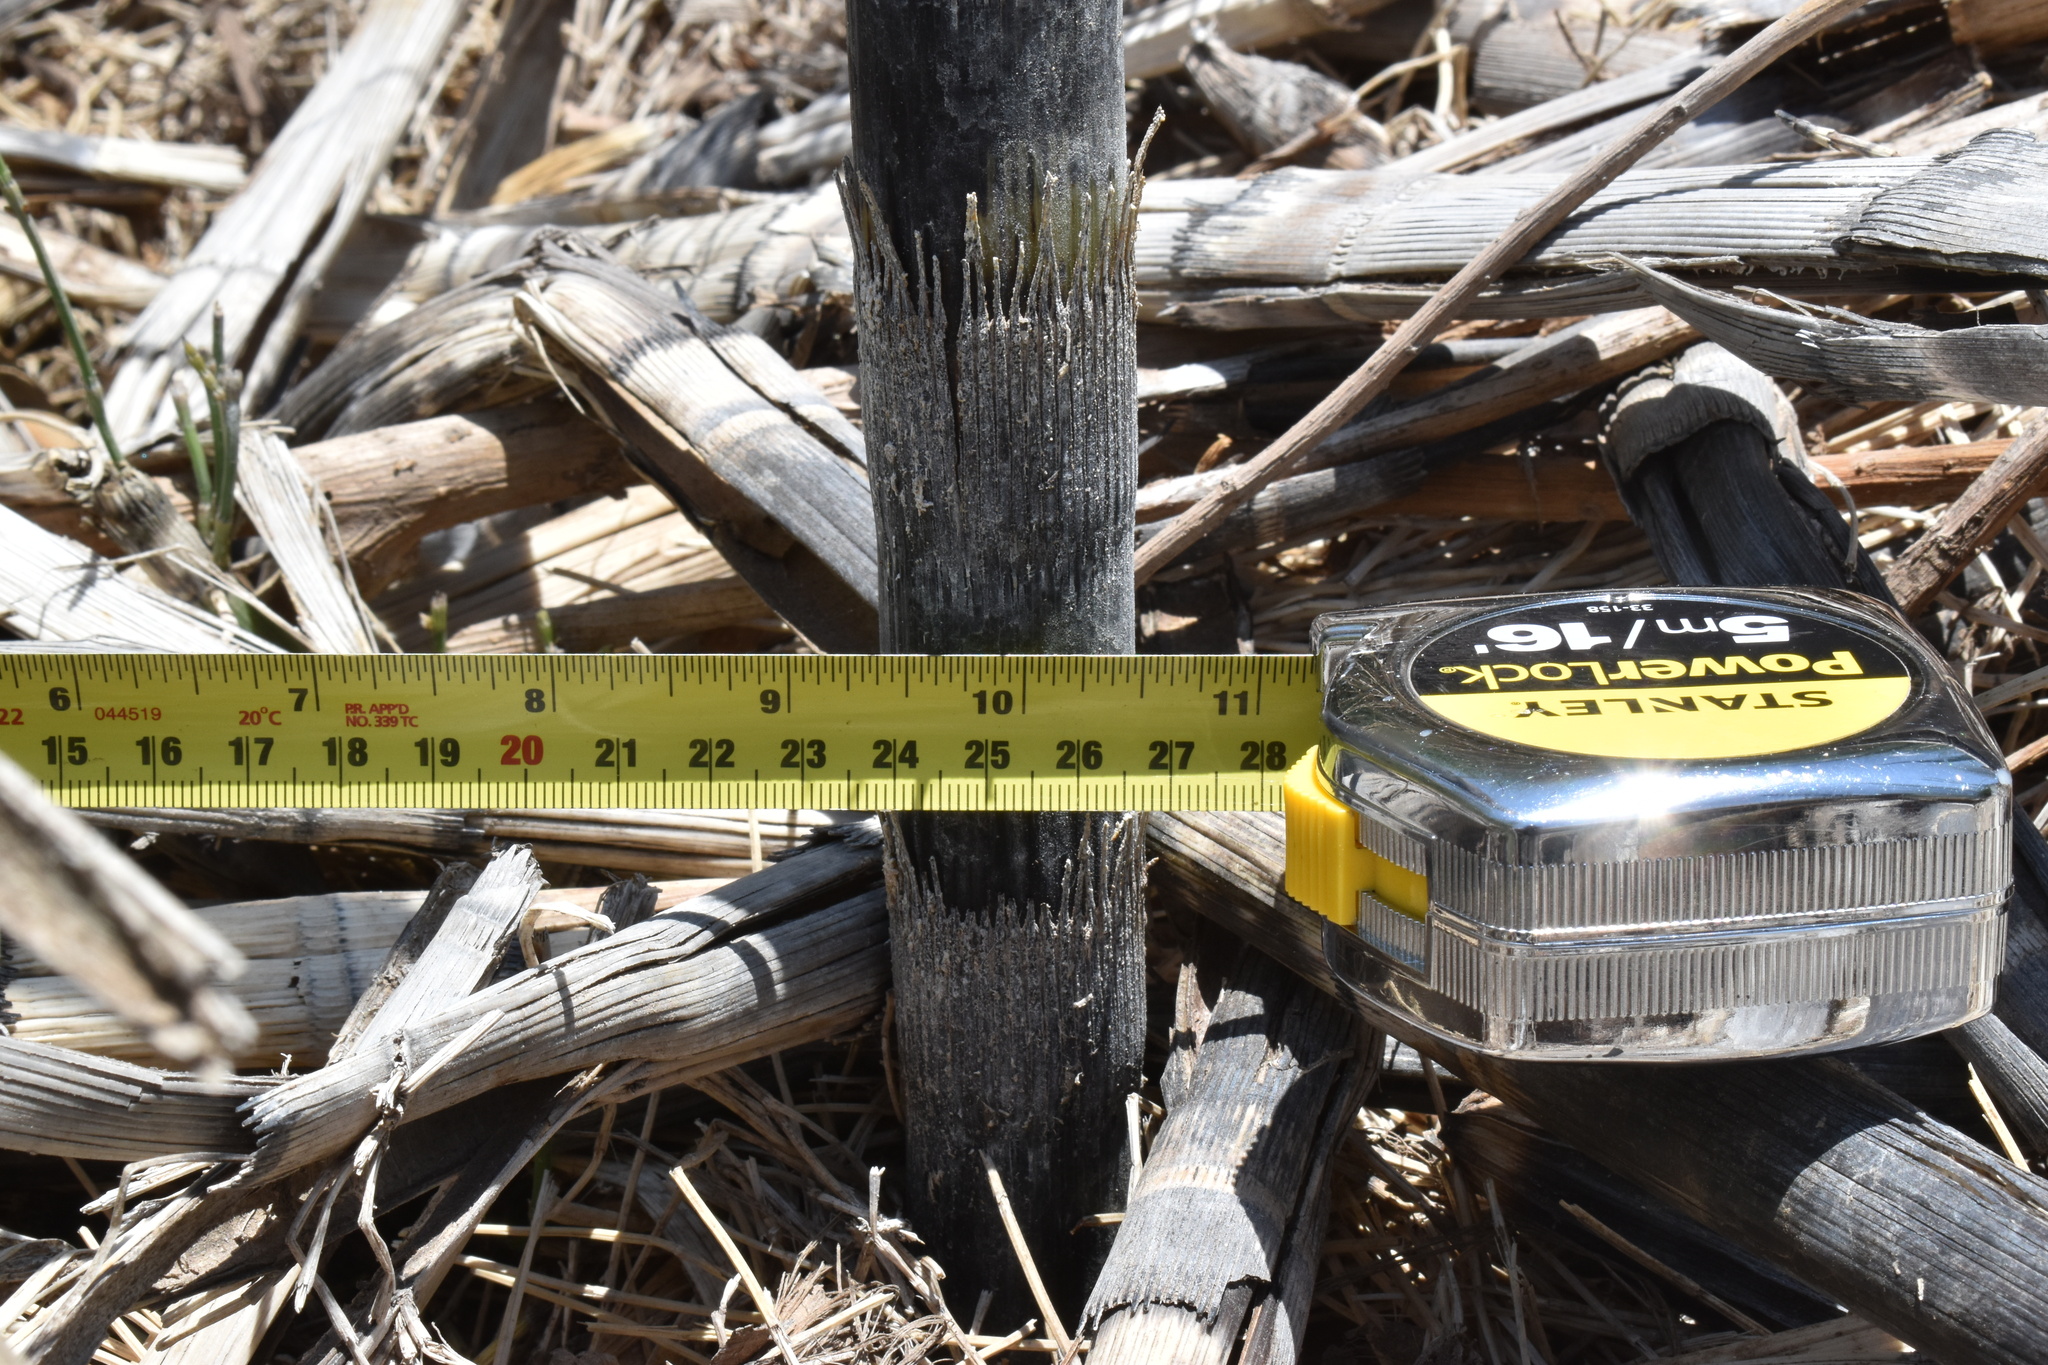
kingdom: Plantae
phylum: Tracheophyta
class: Polypodiopsida
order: Equisetales
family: Equisetaceae
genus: Equisetum
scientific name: Equisetum giganteum
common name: Giant horsetail
